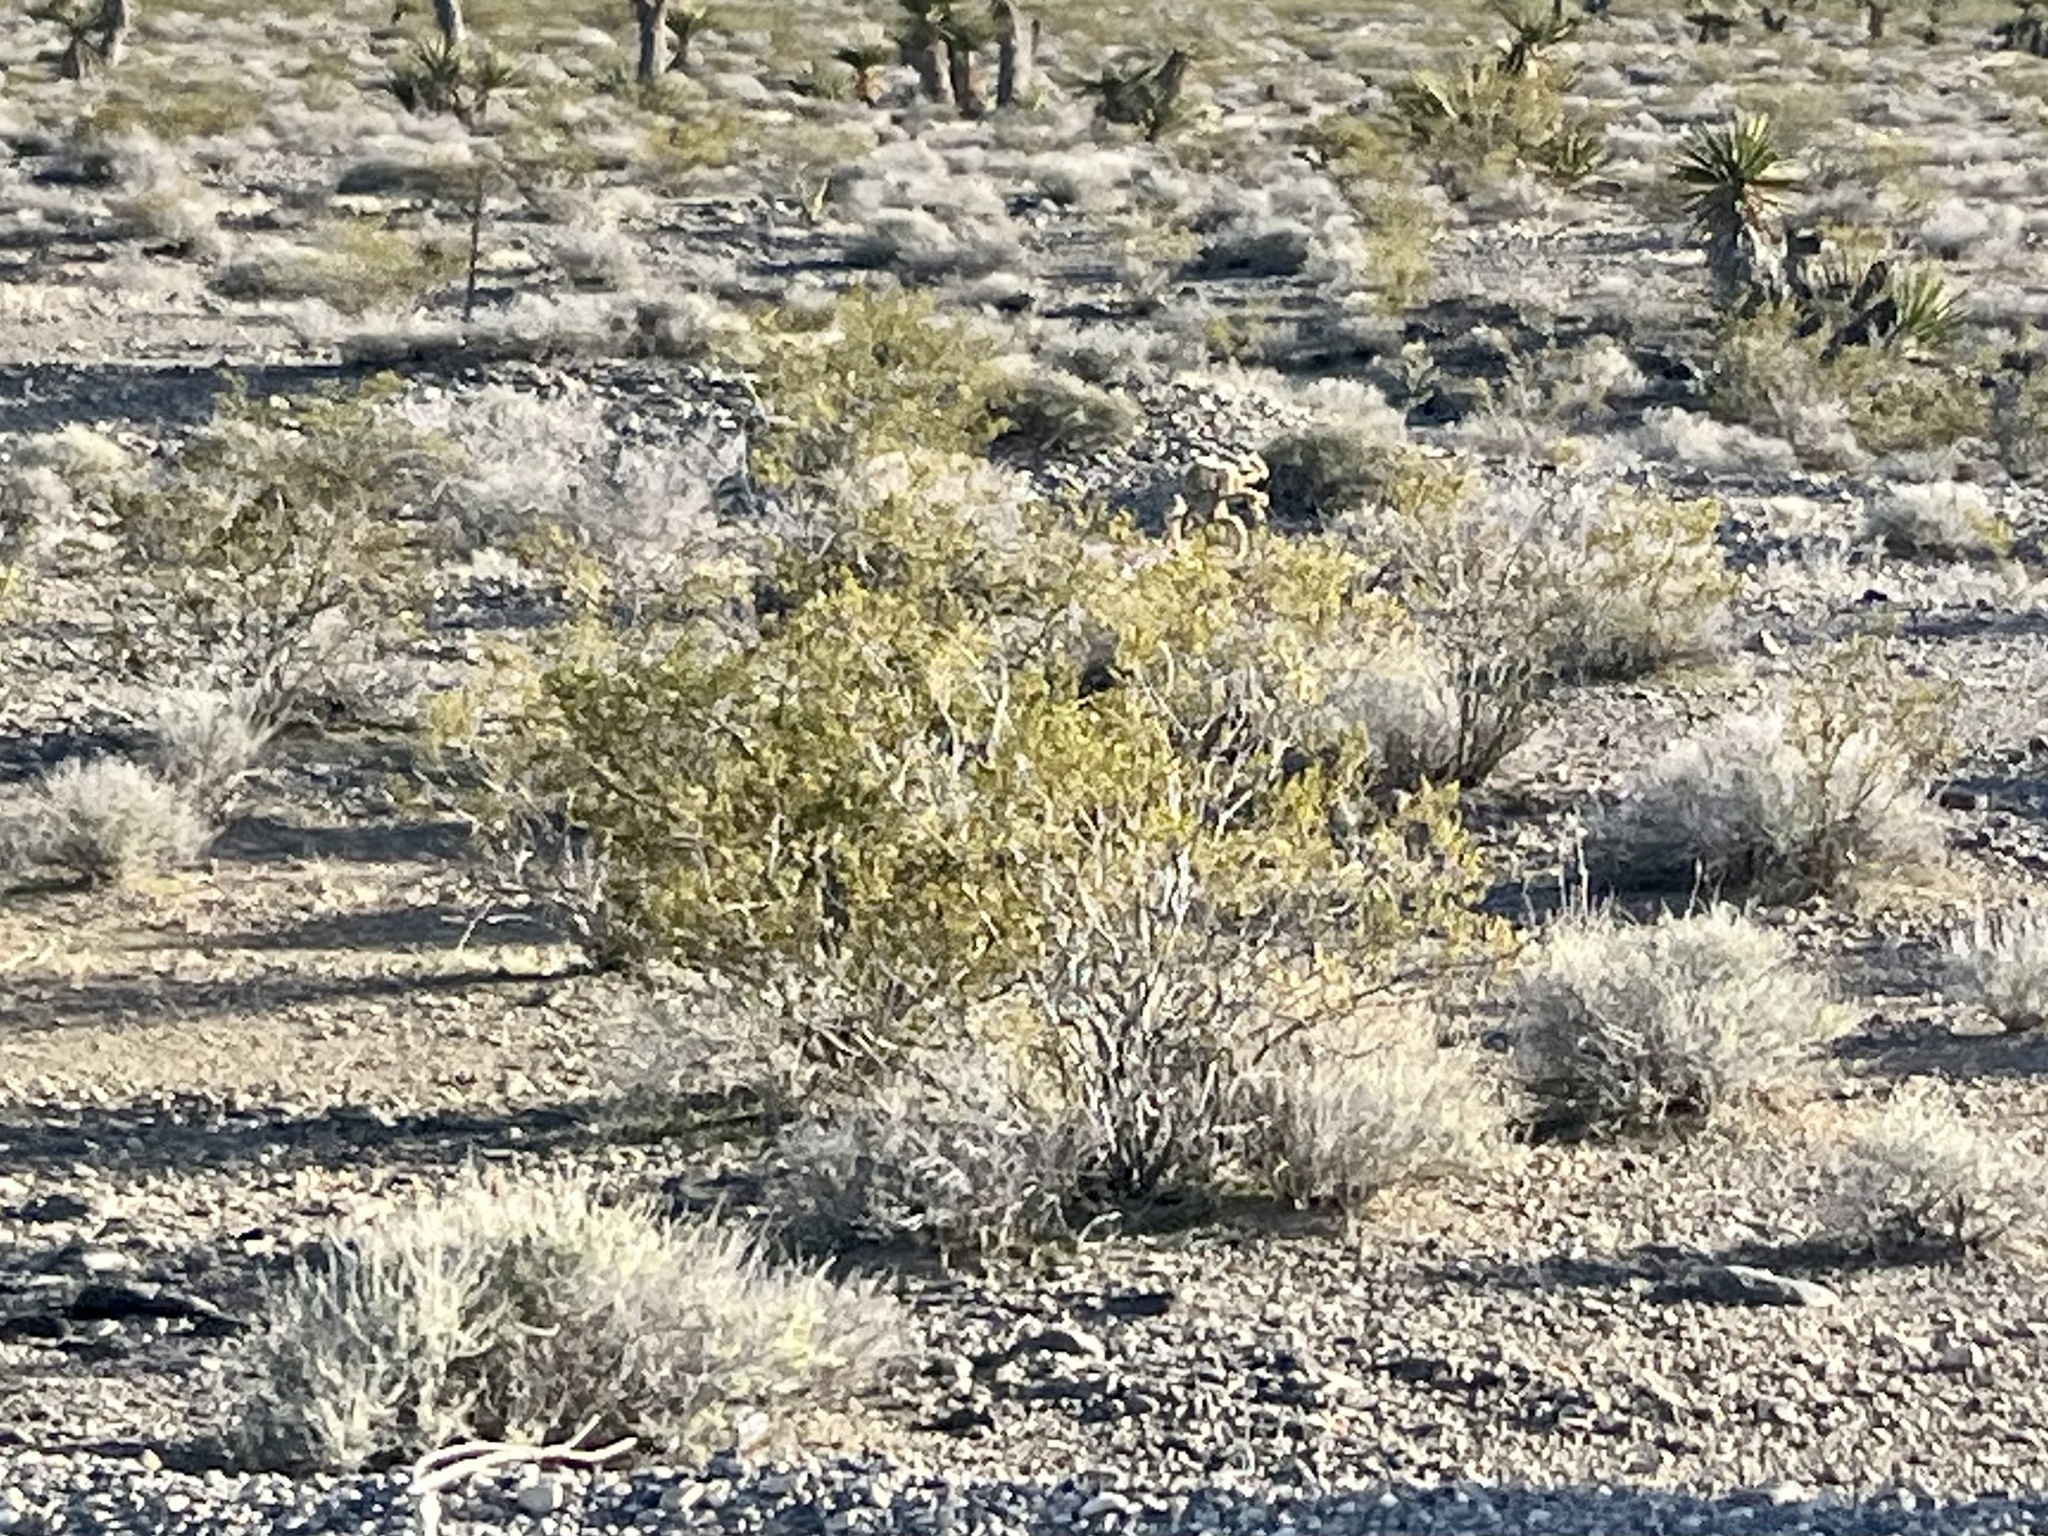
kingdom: Plantae
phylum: Tracheophyta
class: Magnoliopsida
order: Zygophyllales
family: Zygophyllaceae
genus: Larrea
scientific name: Larrea tridentata
